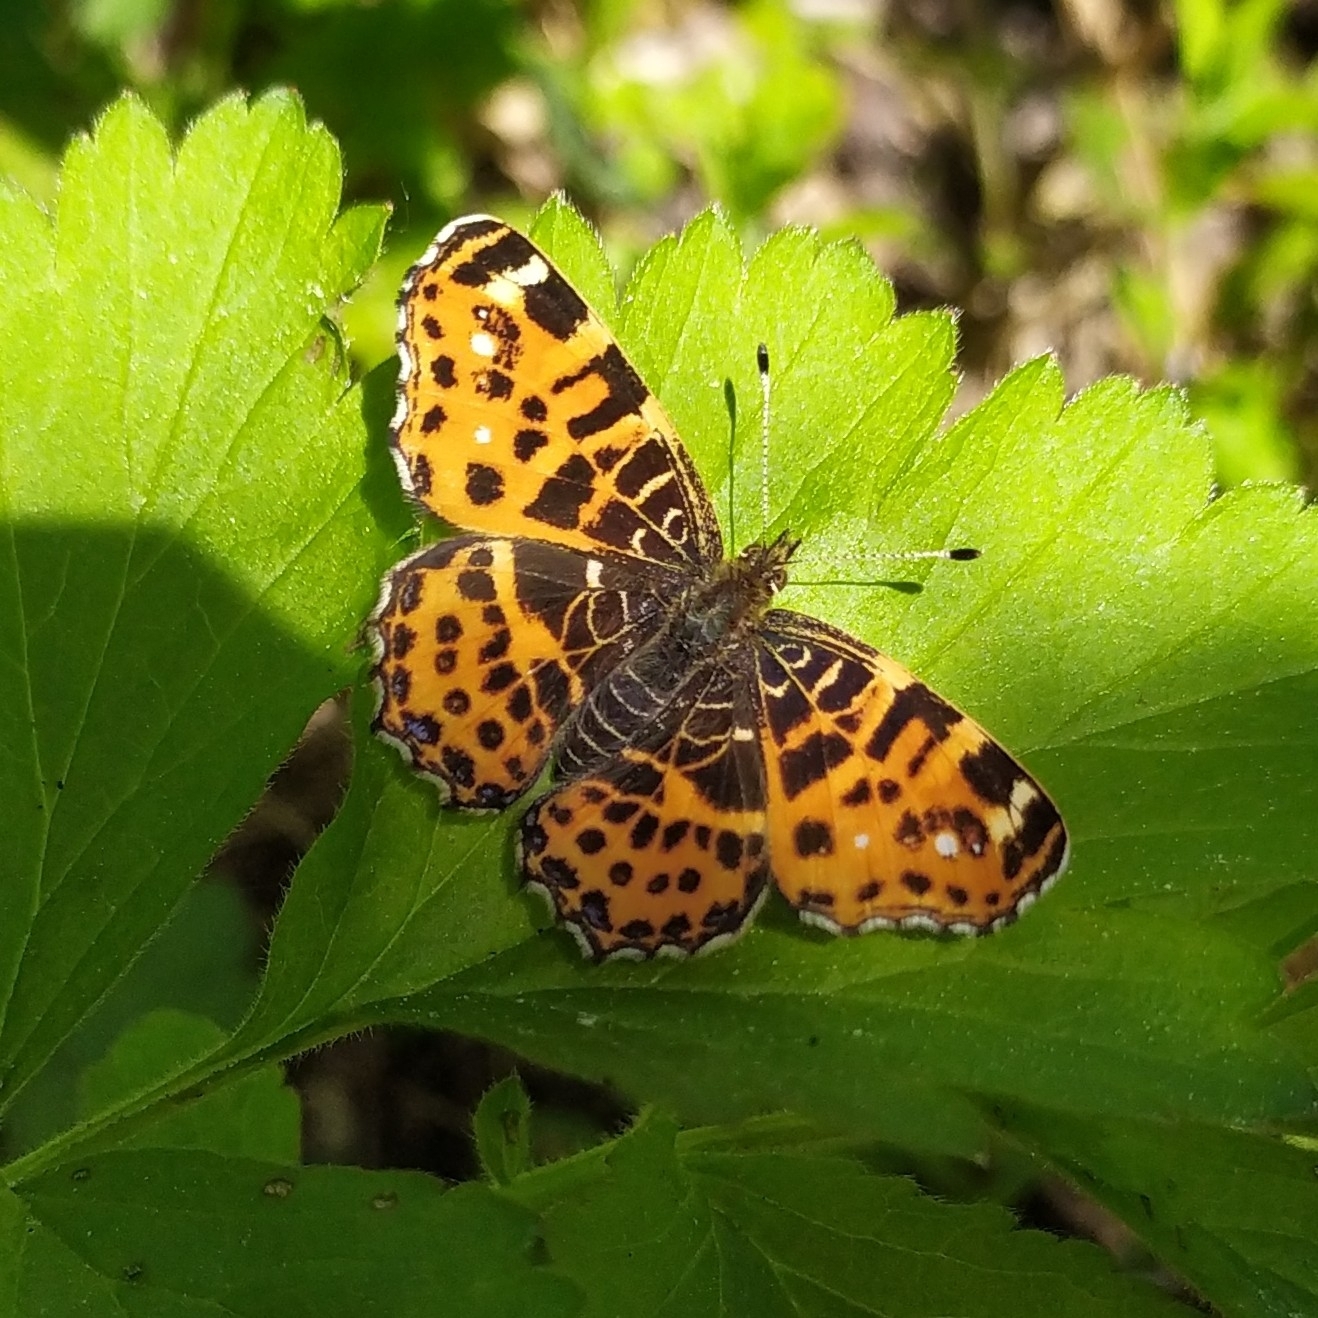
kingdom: Animalia
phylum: Arthropoda
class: Insecta
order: Lepidoptera
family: Nymphalidae
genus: Araschnia
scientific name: Araschnia levana
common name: Map butterfly
